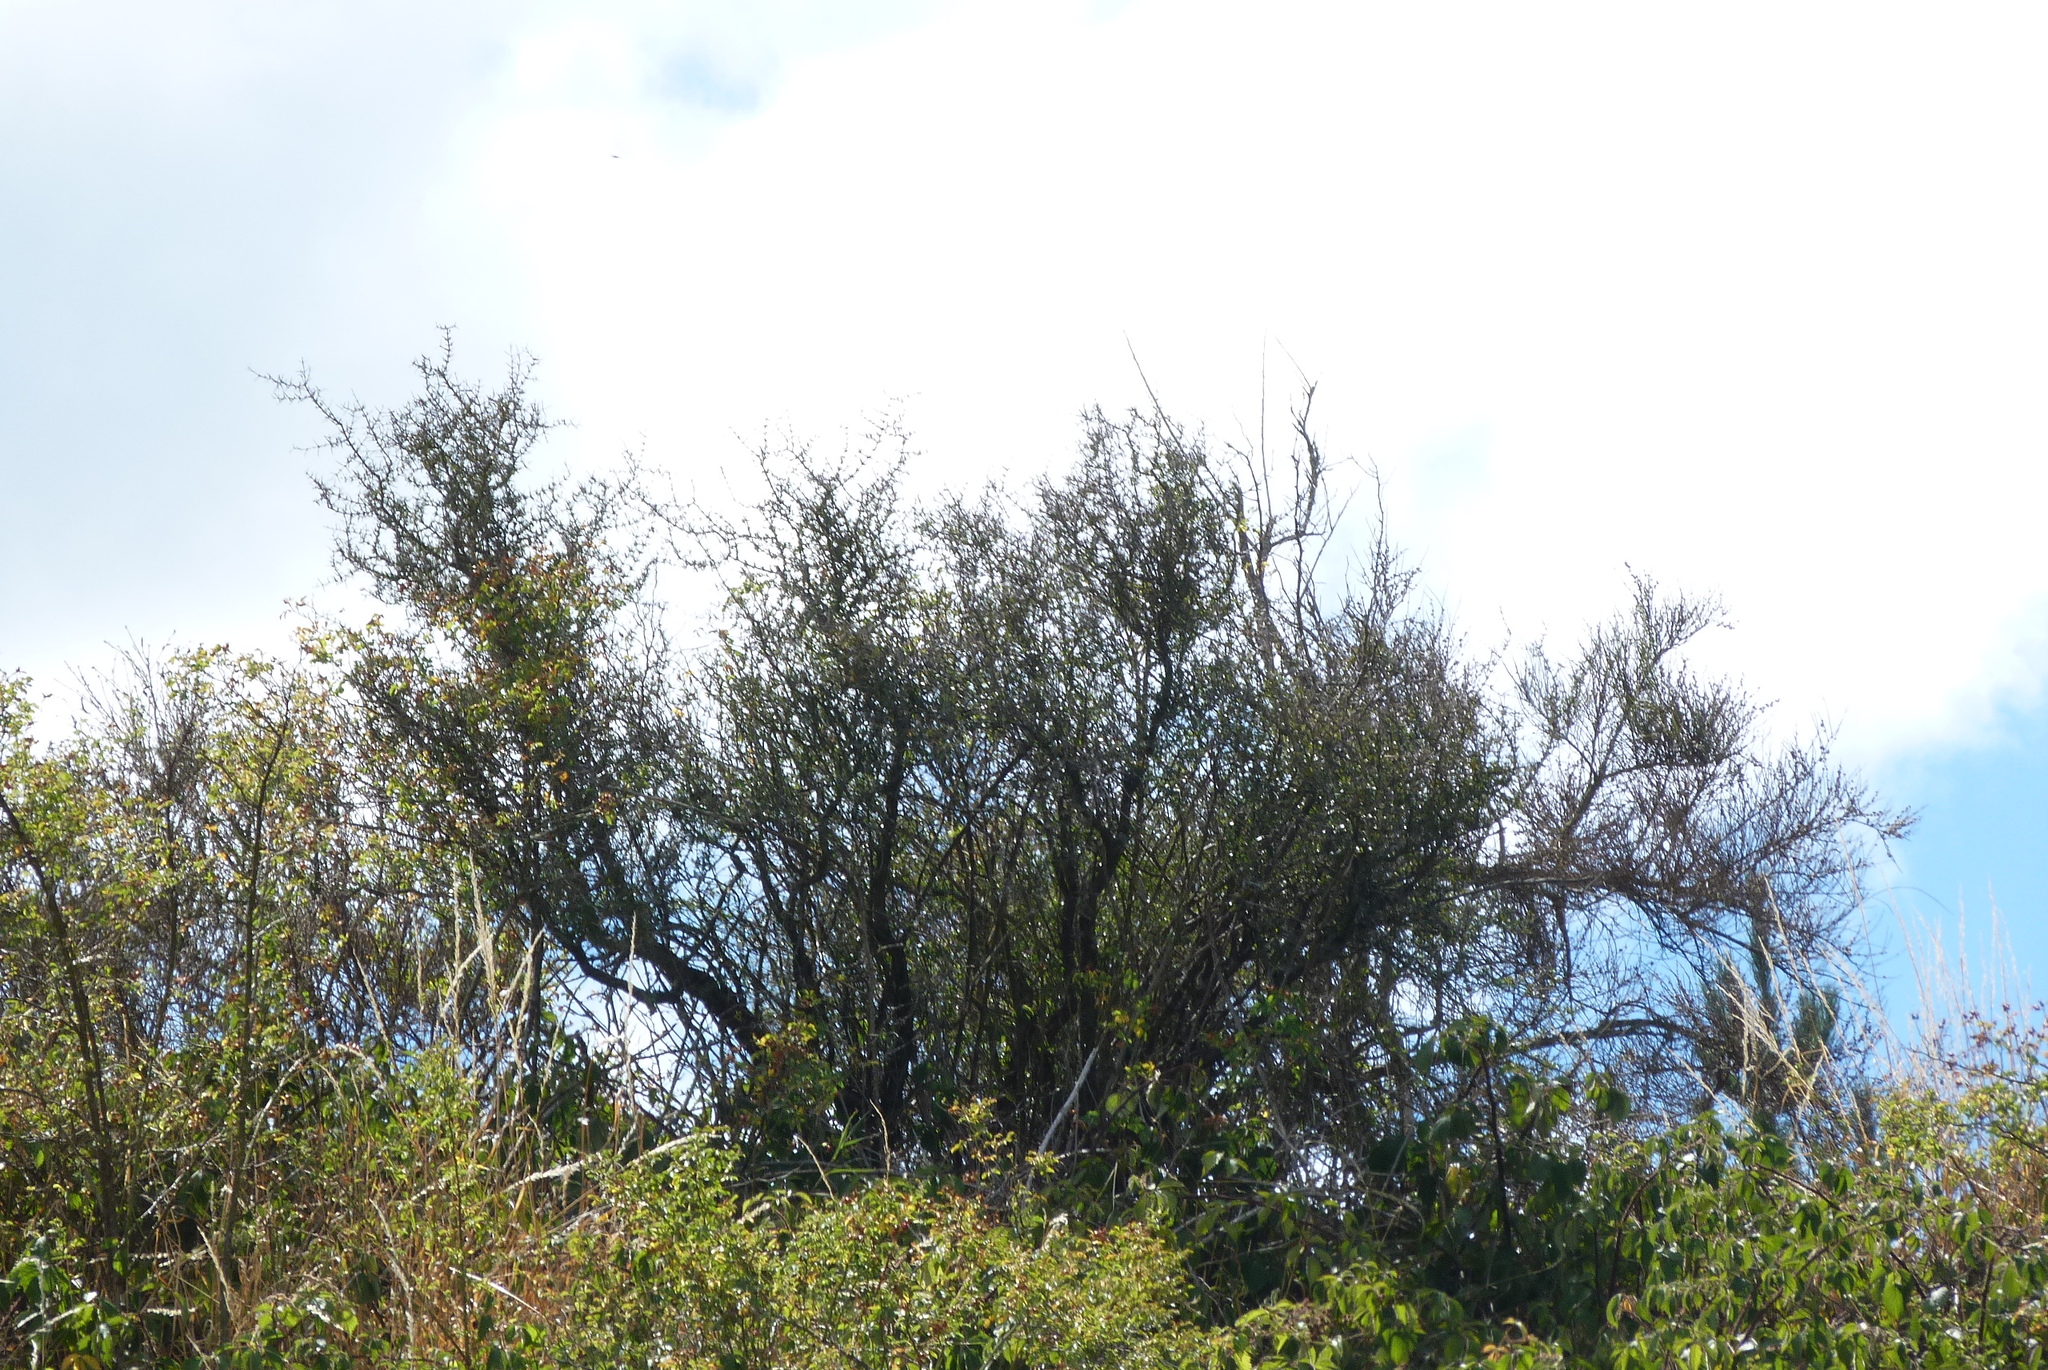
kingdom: Plantae
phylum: Tracheophyta
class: Magnoliopsida
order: Rosales
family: Rhamnaceae
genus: Discaria
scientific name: Discaria toumatou
